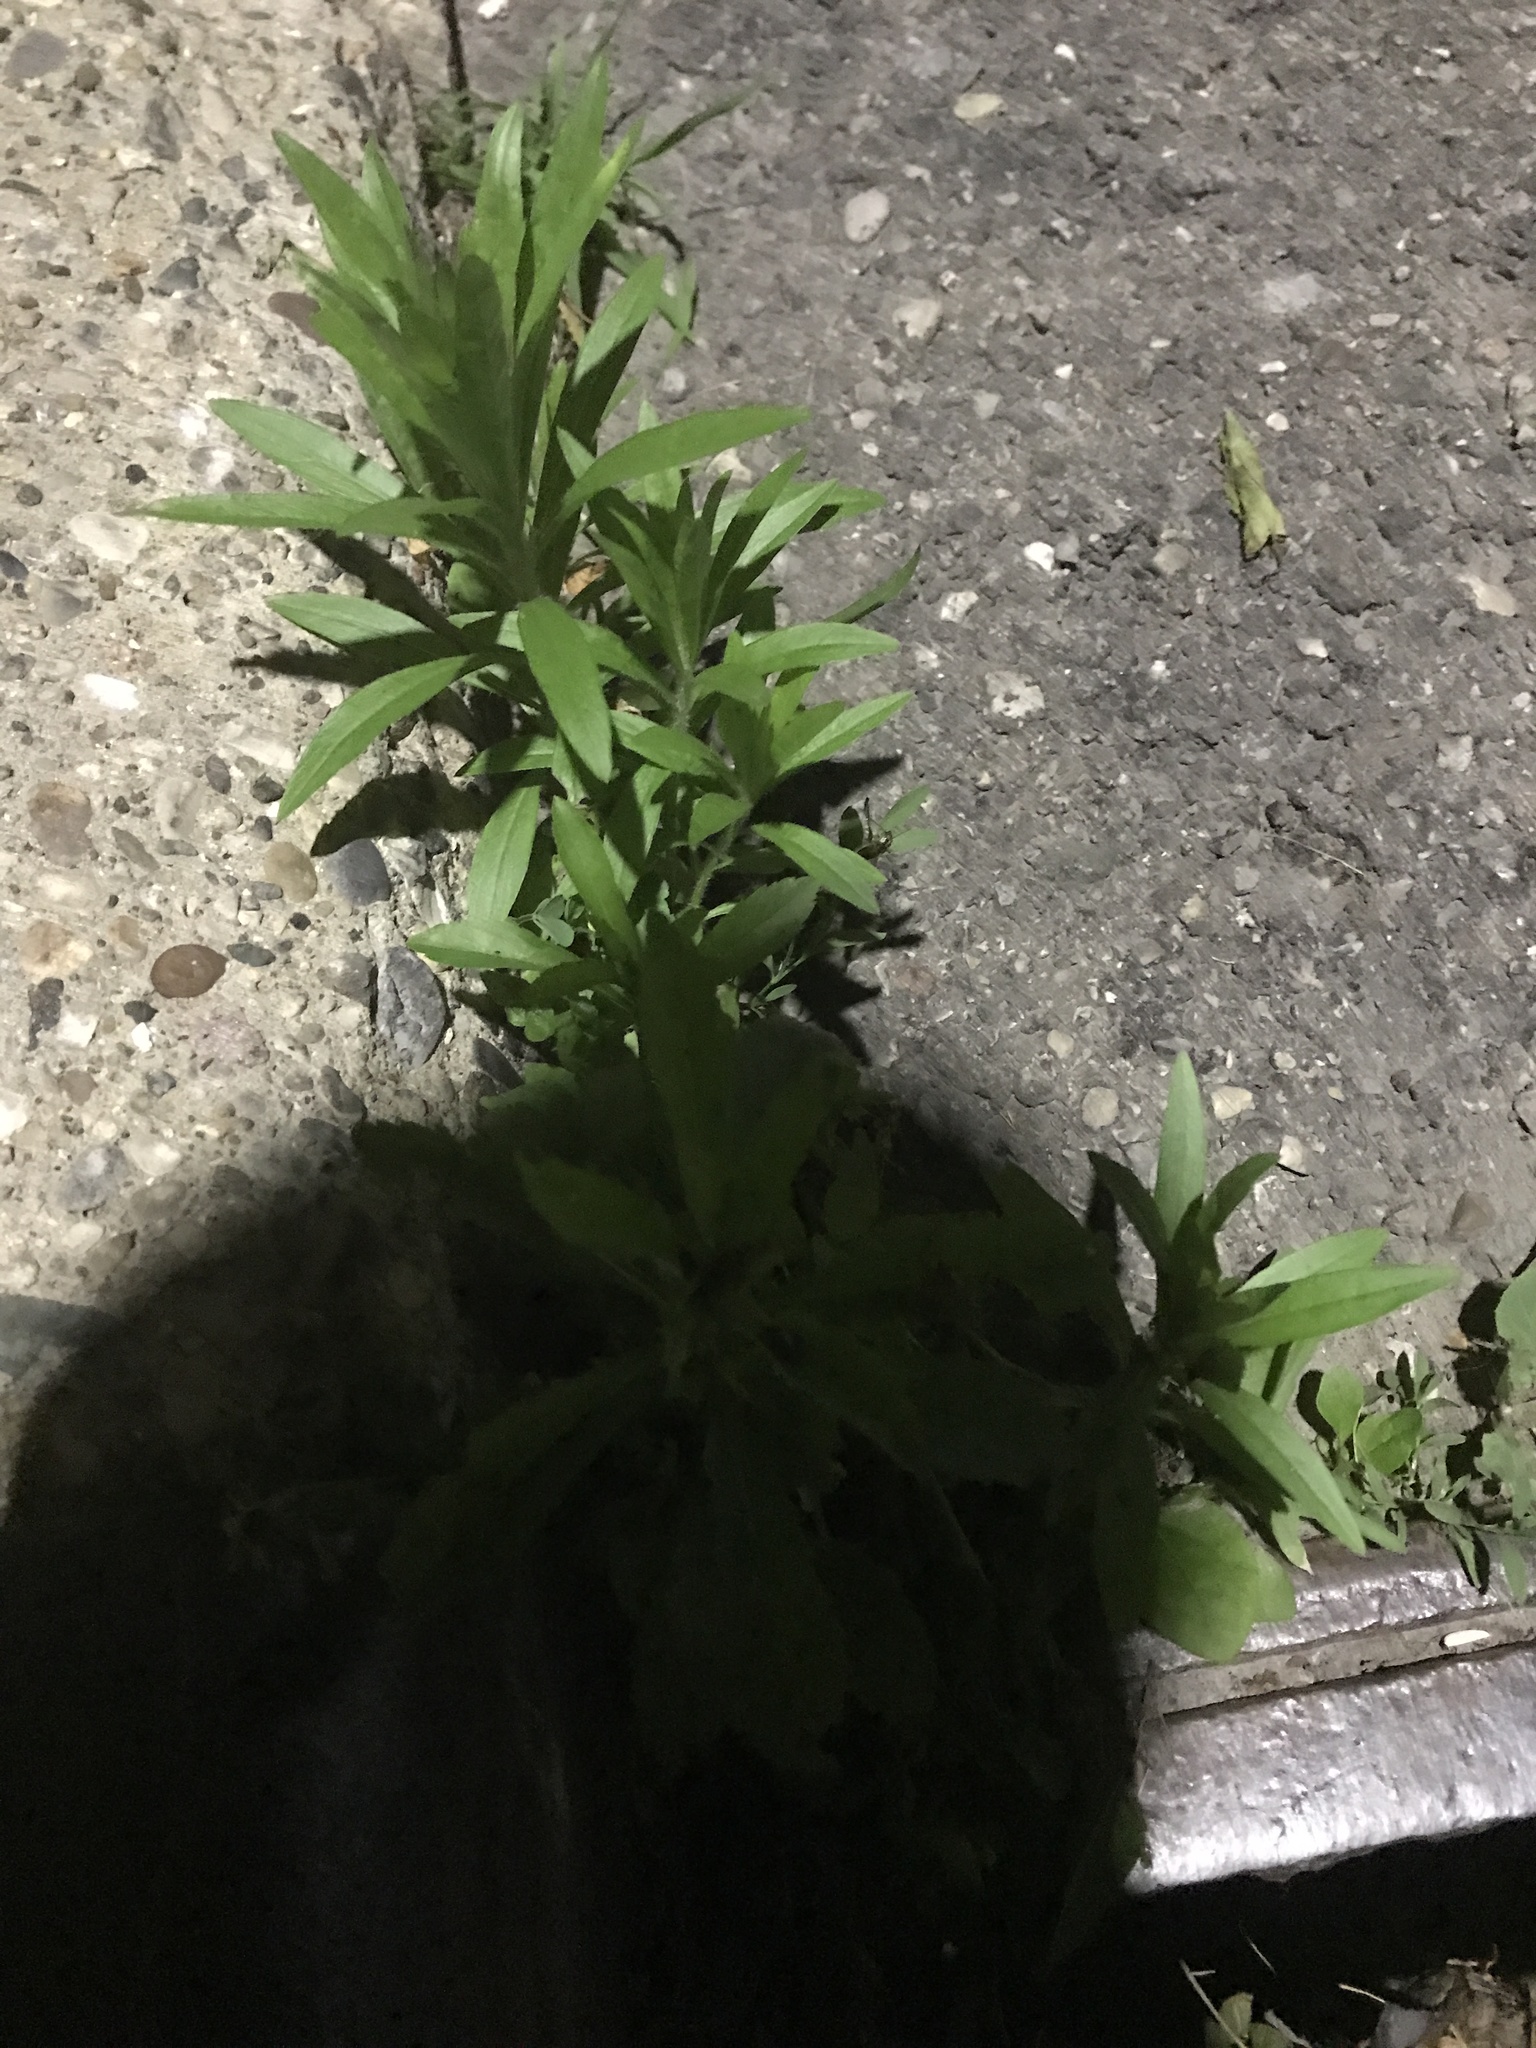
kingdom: Plantae
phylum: Tracheophyta
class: Magnoliopsida
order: Asterales
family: Asteraceae
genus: Erigeron
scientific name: Erigeron canadensis
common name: Canadian fleabane
